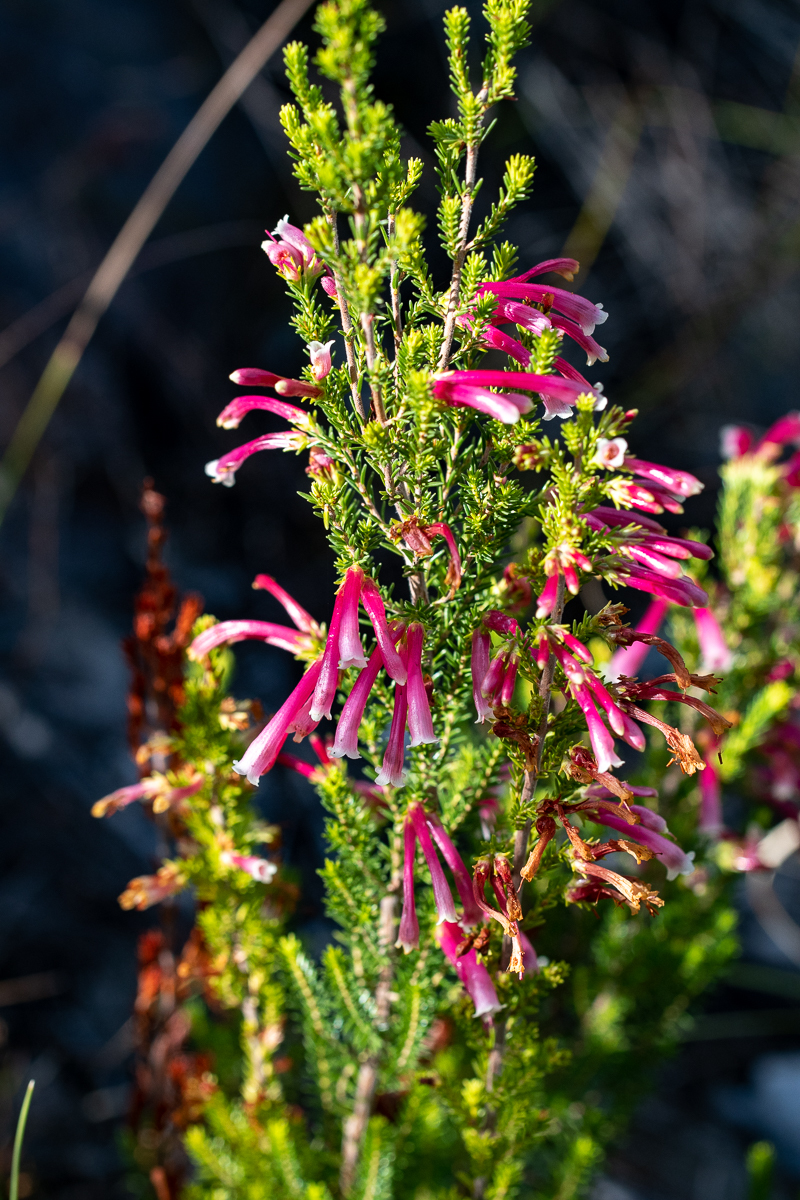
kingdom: Plantae
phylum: Tracheophyta
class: Magnoliopsida
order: Ericales
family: Ericaceae
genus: Erica
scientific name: Erica discolor
